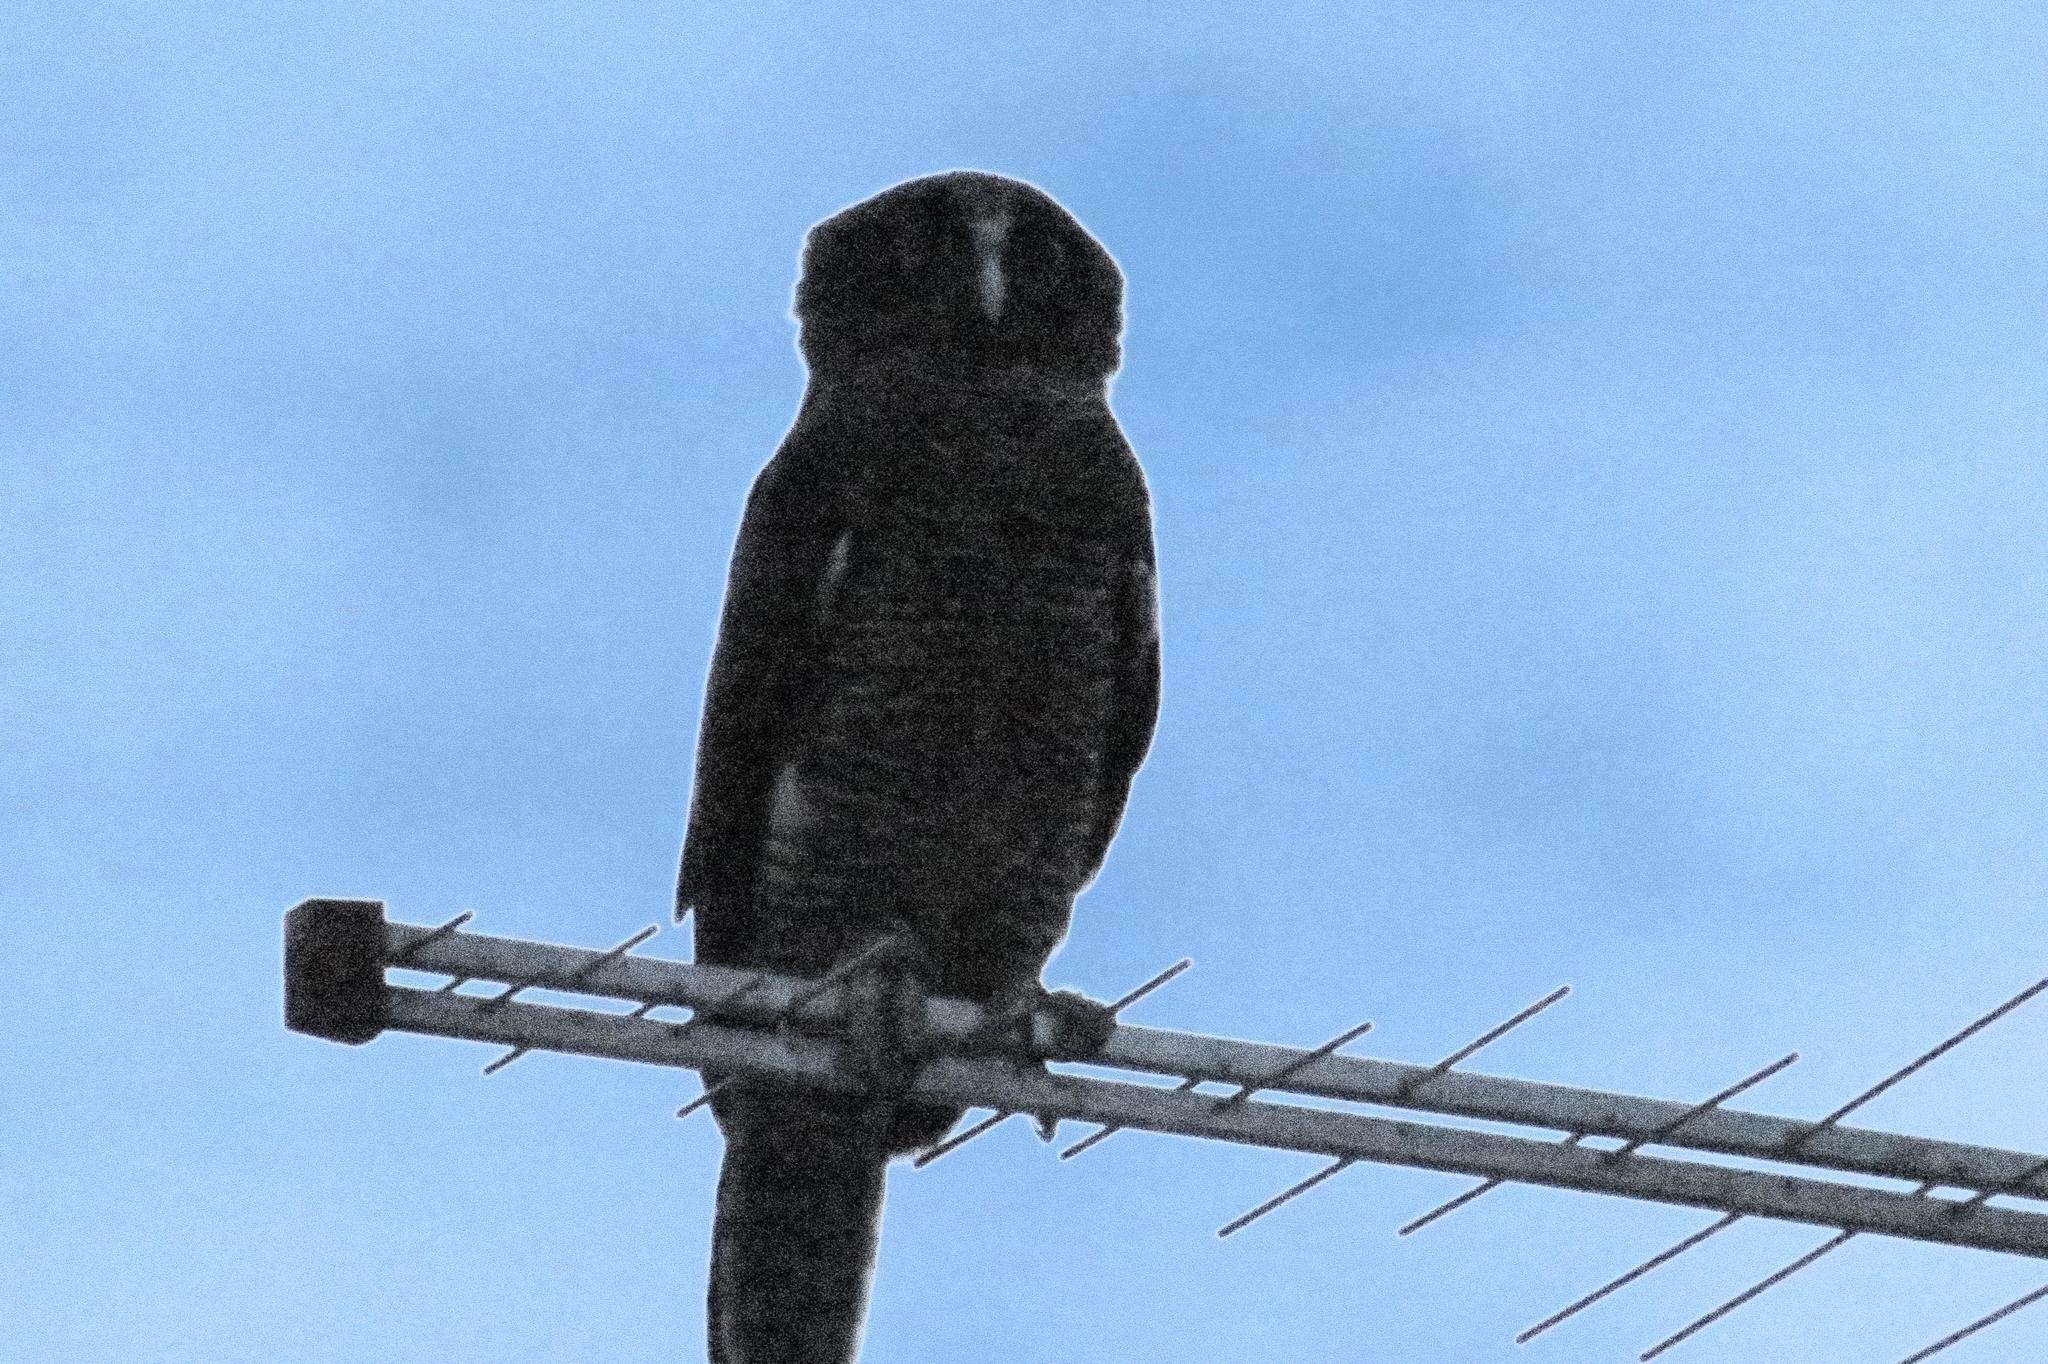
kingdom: Animalia
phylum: Chordata
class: Aves
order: Strigiformes
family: Strigidae
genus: Ninox
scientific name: Ninox rufa
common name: Rufous owl
